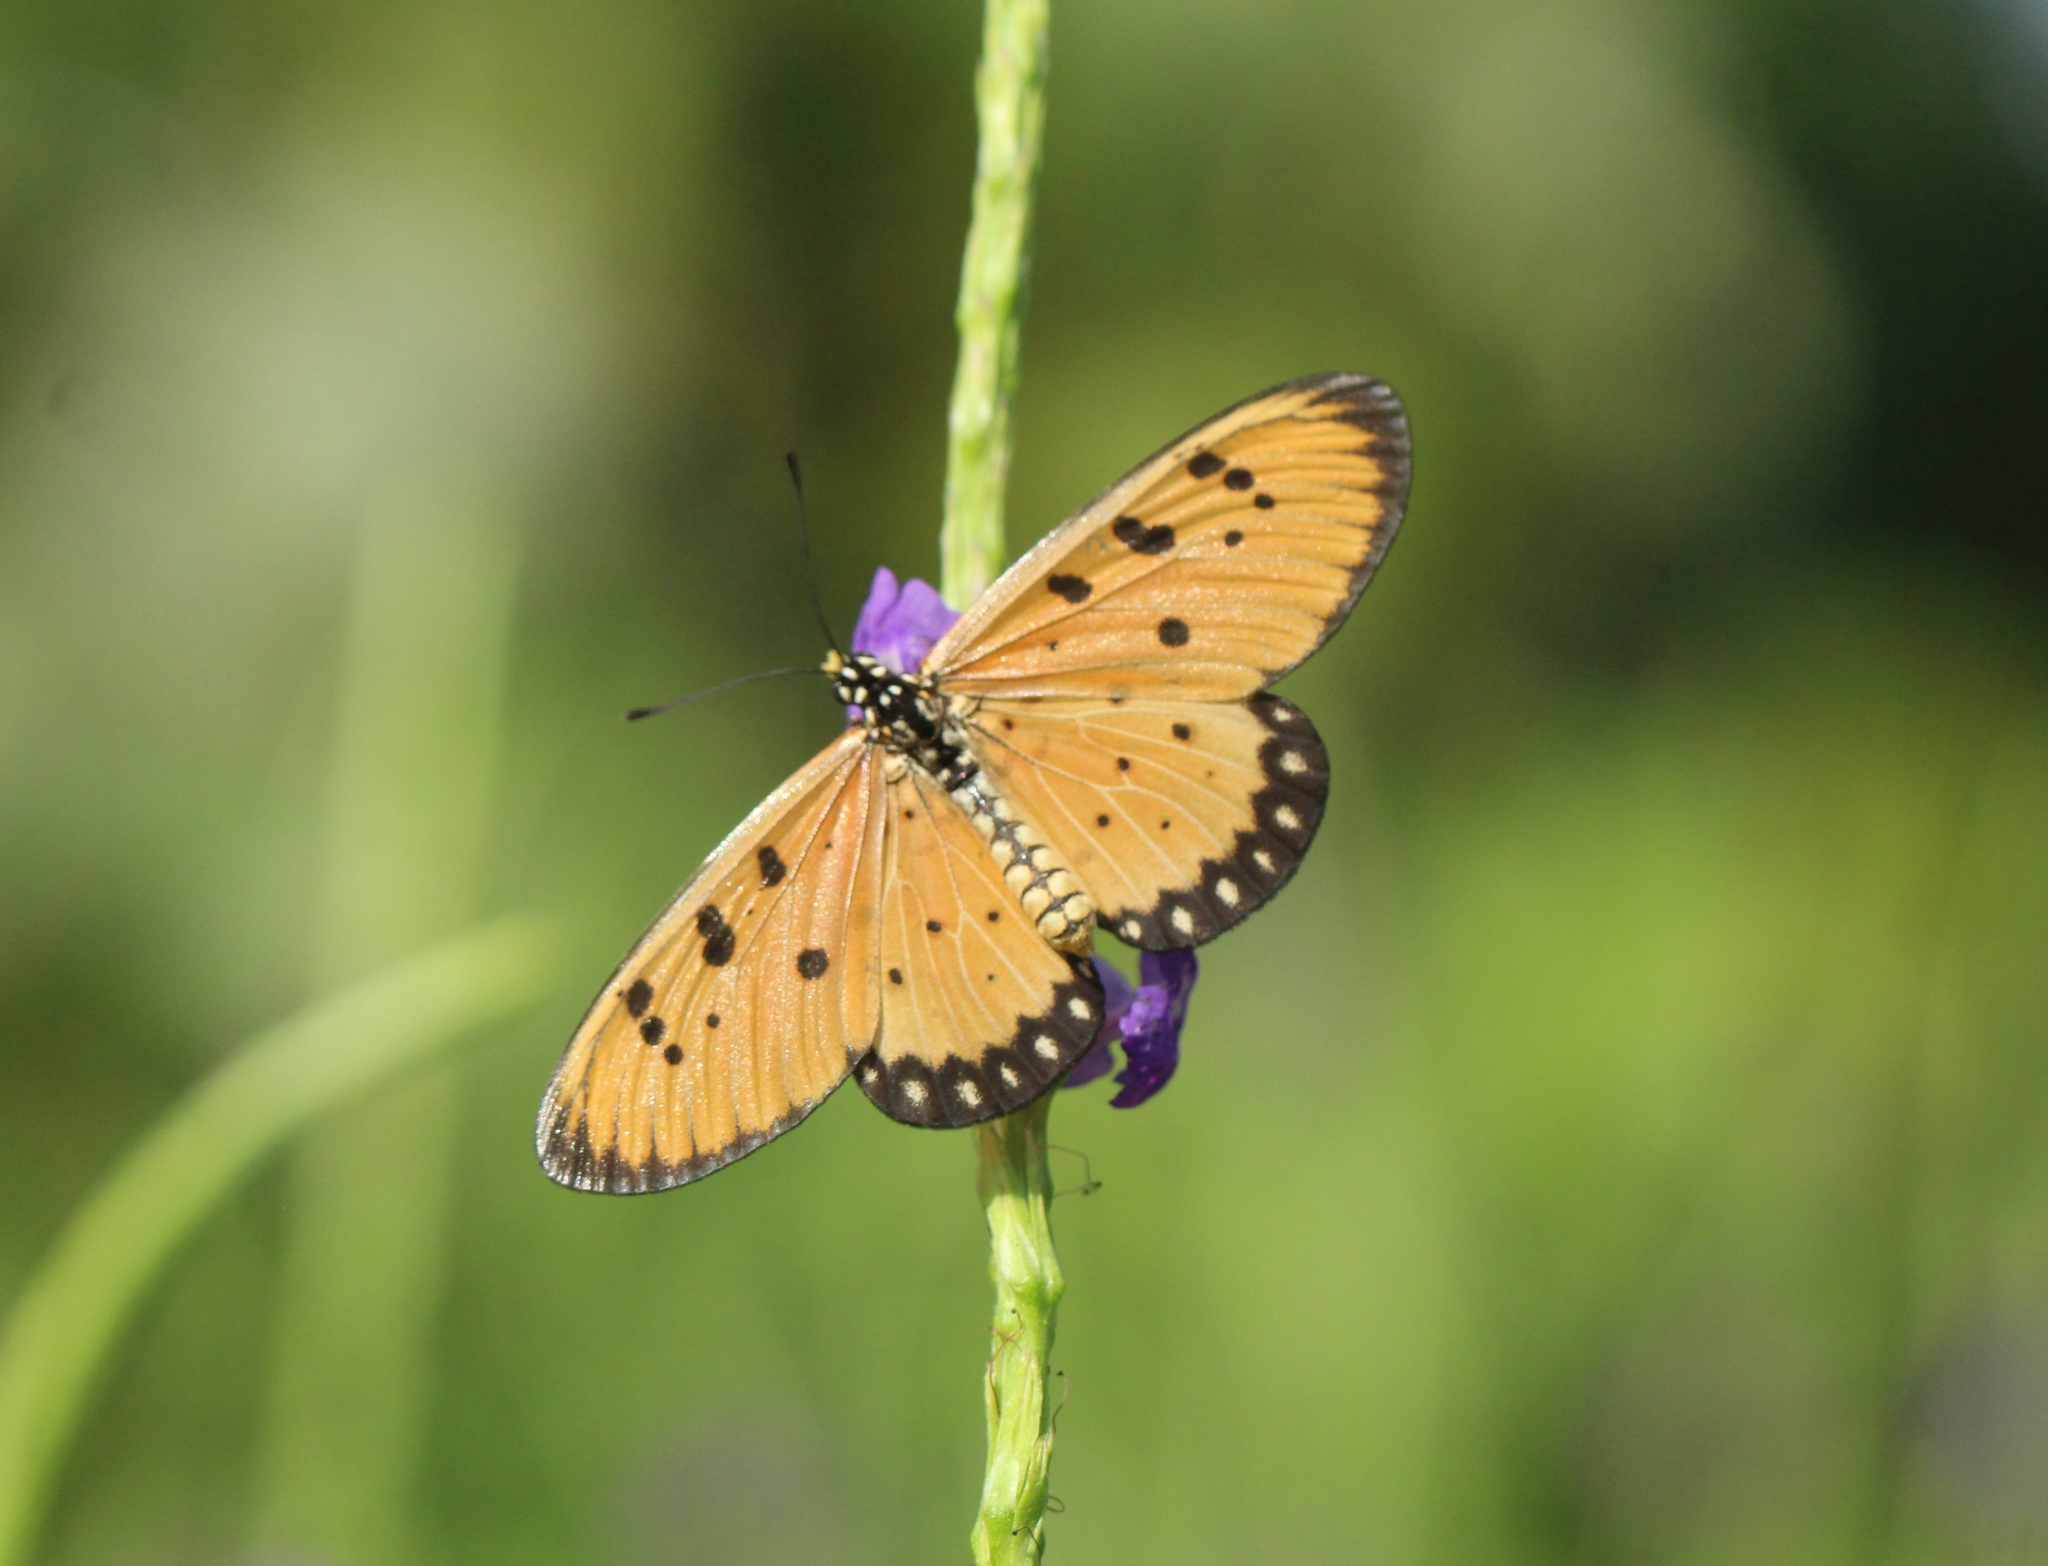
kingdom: Animalia
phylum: Arthropoda
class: Insecta
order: Lepidoptera
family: Nymphalidae
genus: Acraea
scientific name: Acraea terpsicore
